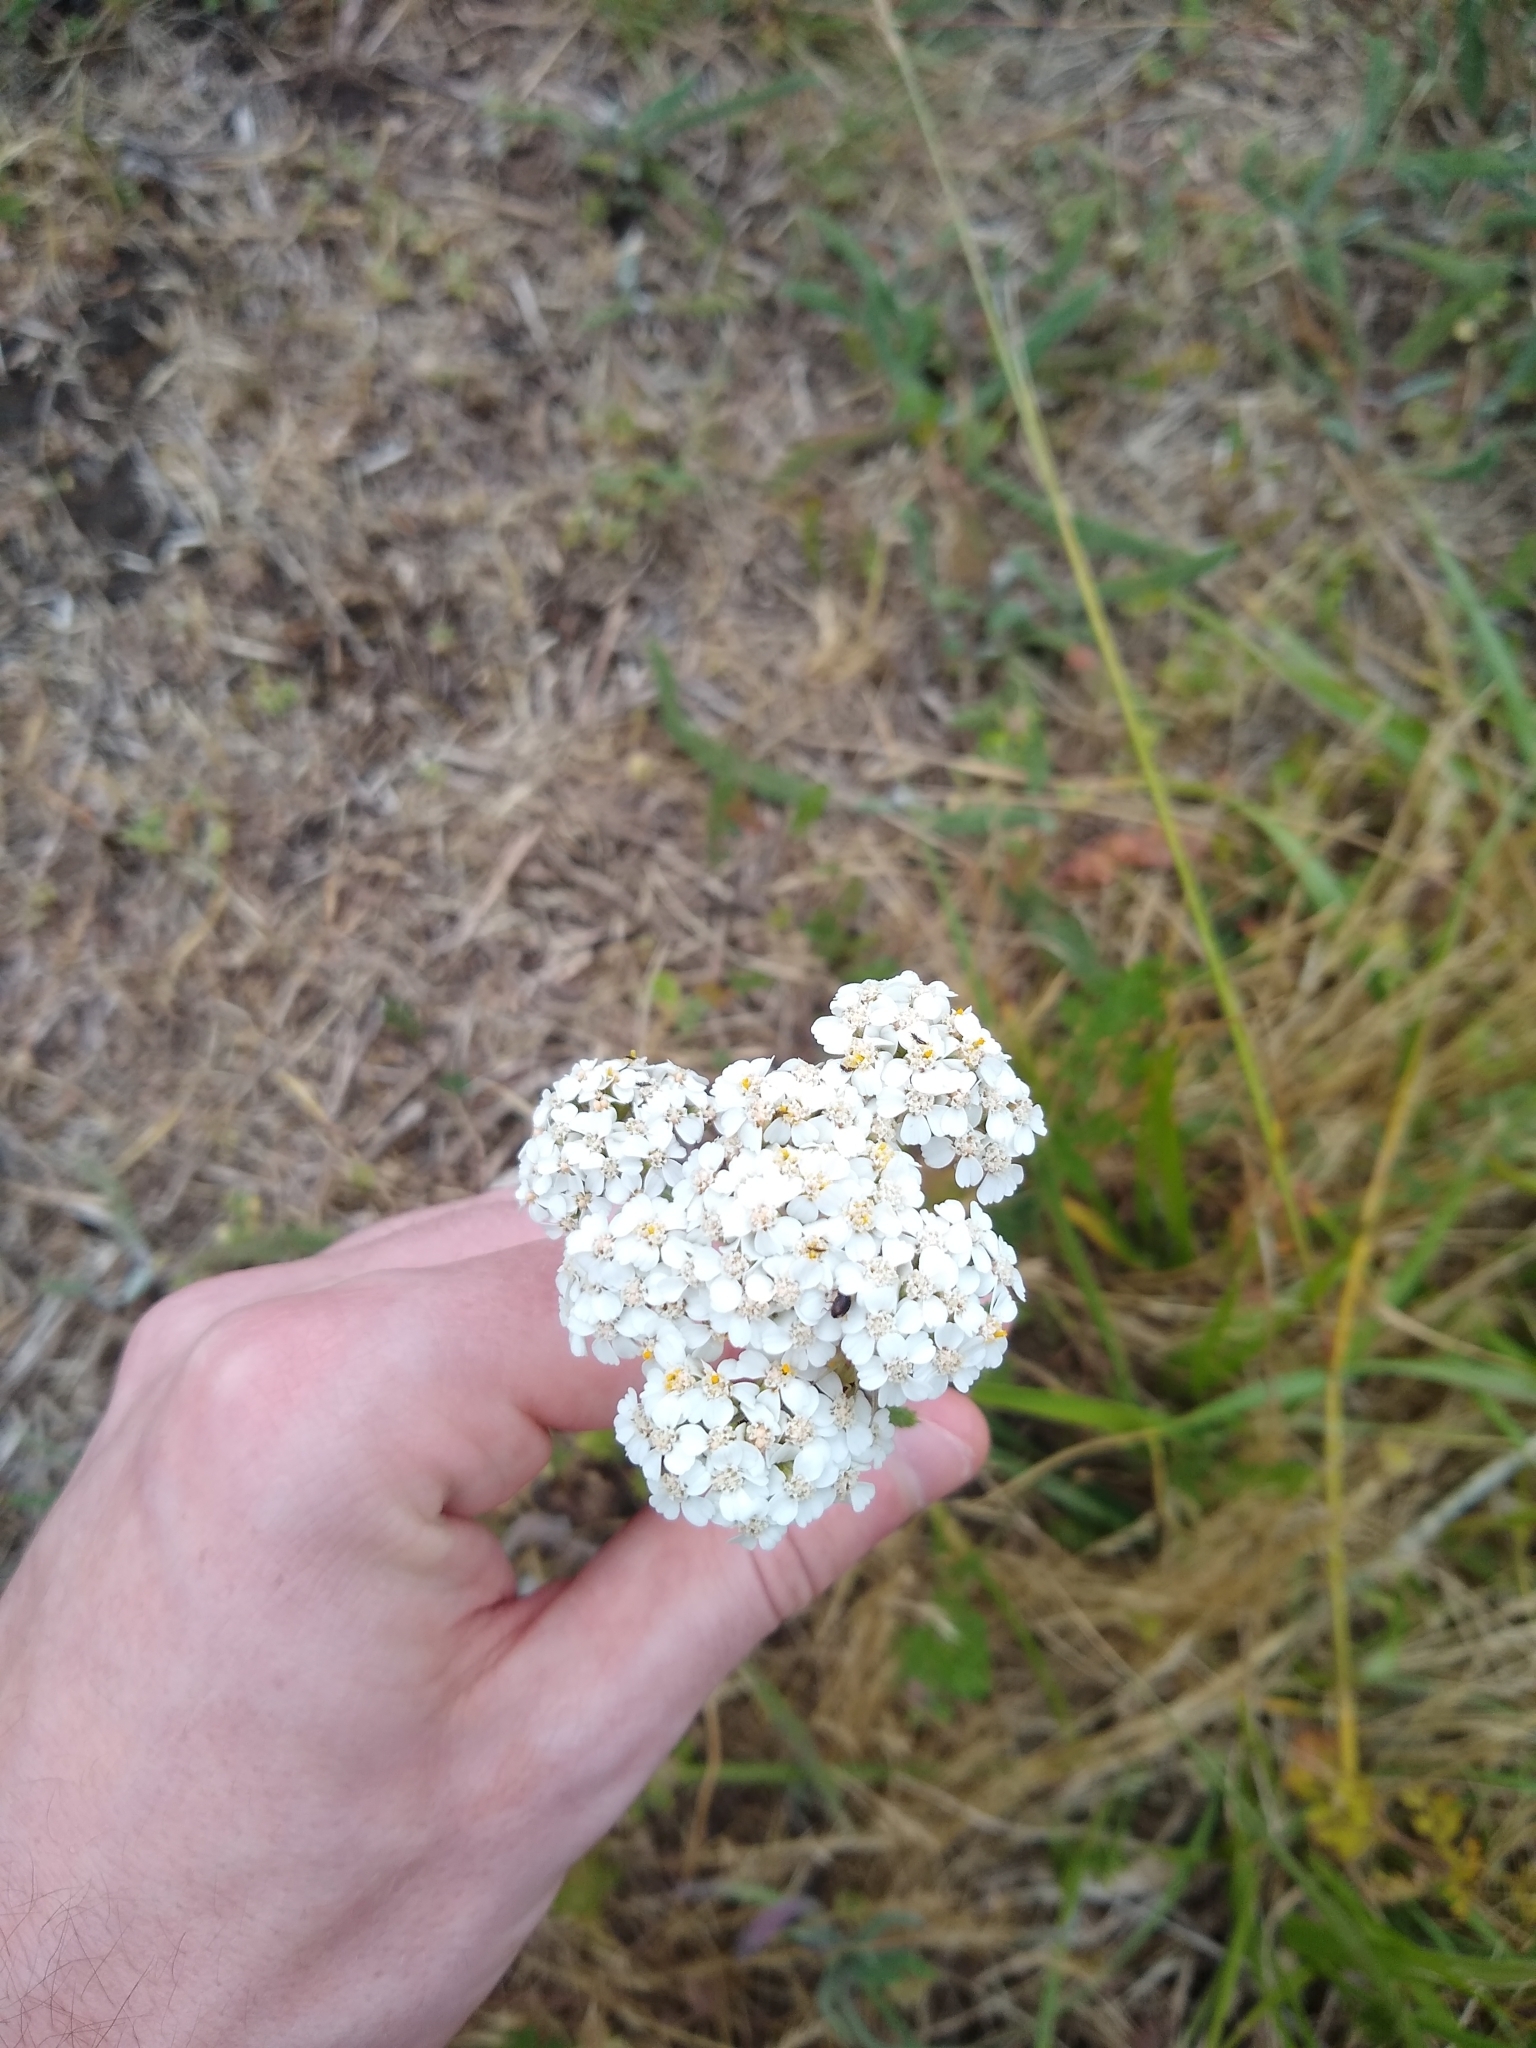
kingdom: Plantae
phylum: Tracheophyta
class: Magnoliopsida
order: Asterales
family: Asteraceae
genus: Achillea
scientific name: Achillea millefolium
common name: Yarrow
